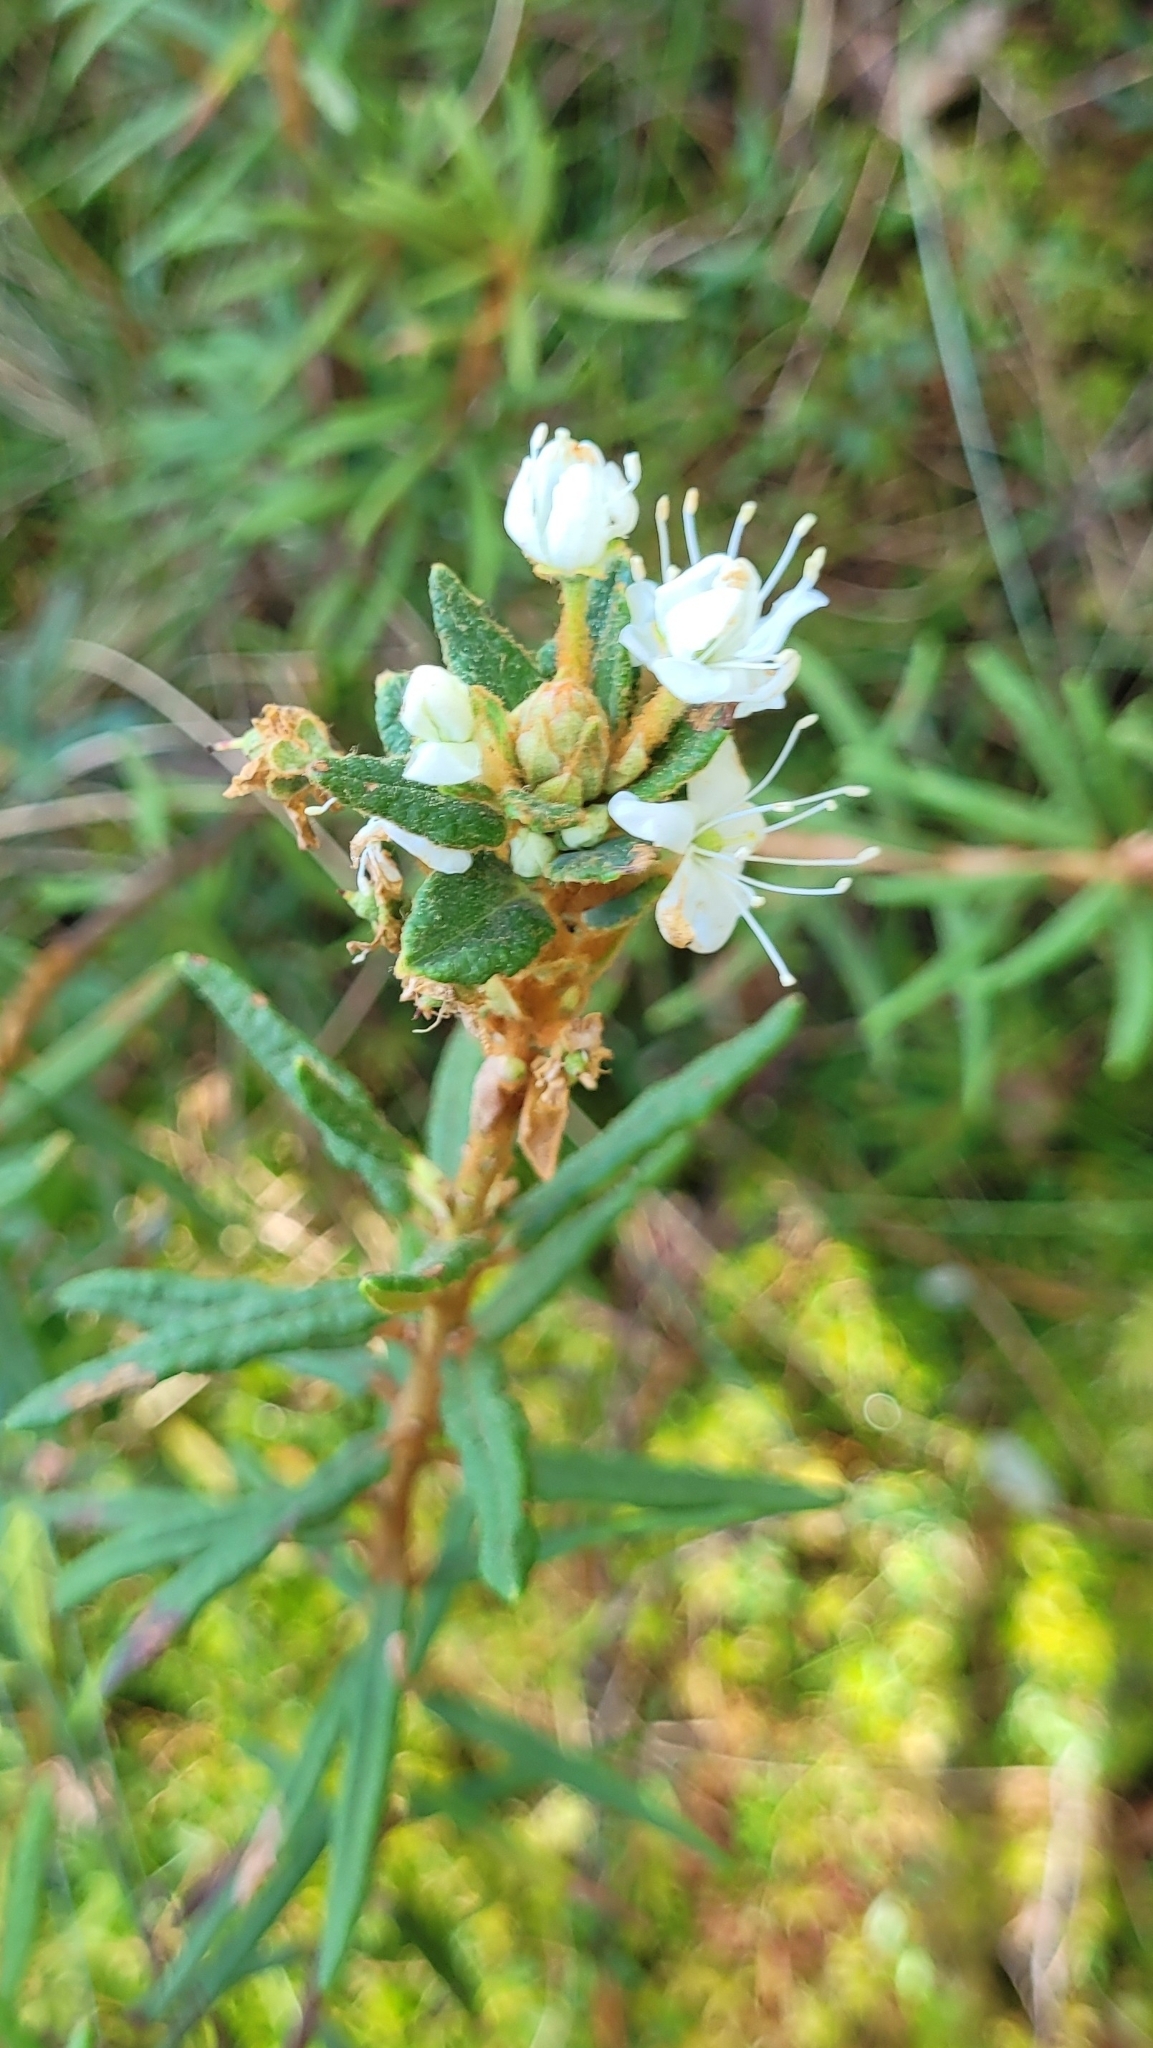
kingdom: Plantae
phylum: Tracheophyta
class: Magnoliopsida
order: Ericales
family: Ericaceae
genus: Rhododendron
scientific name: Rhododendron tomentosum
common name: Marsh labrador tea
